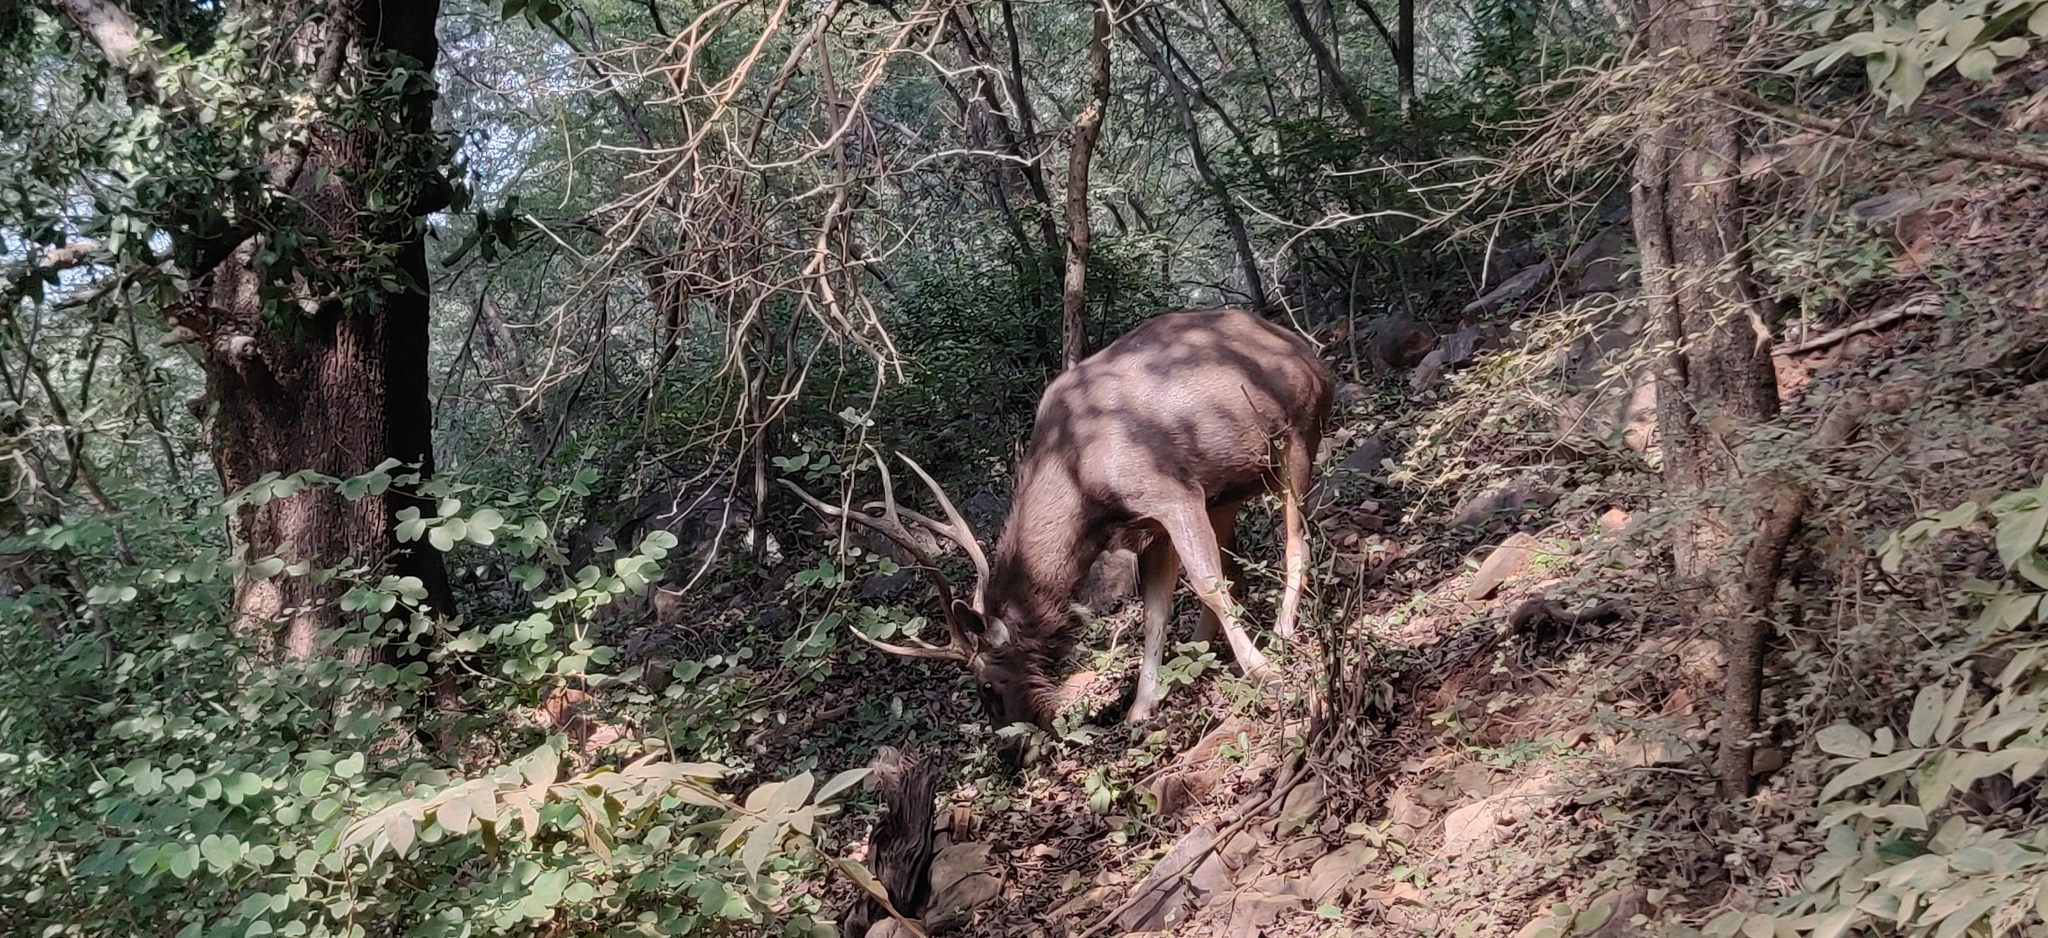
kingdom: Animalia
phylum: Chordata
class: Mammalia
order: Artiodactyla
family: Cervidae
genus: Rusa
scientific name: Rusa unicolor
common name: Sambar
